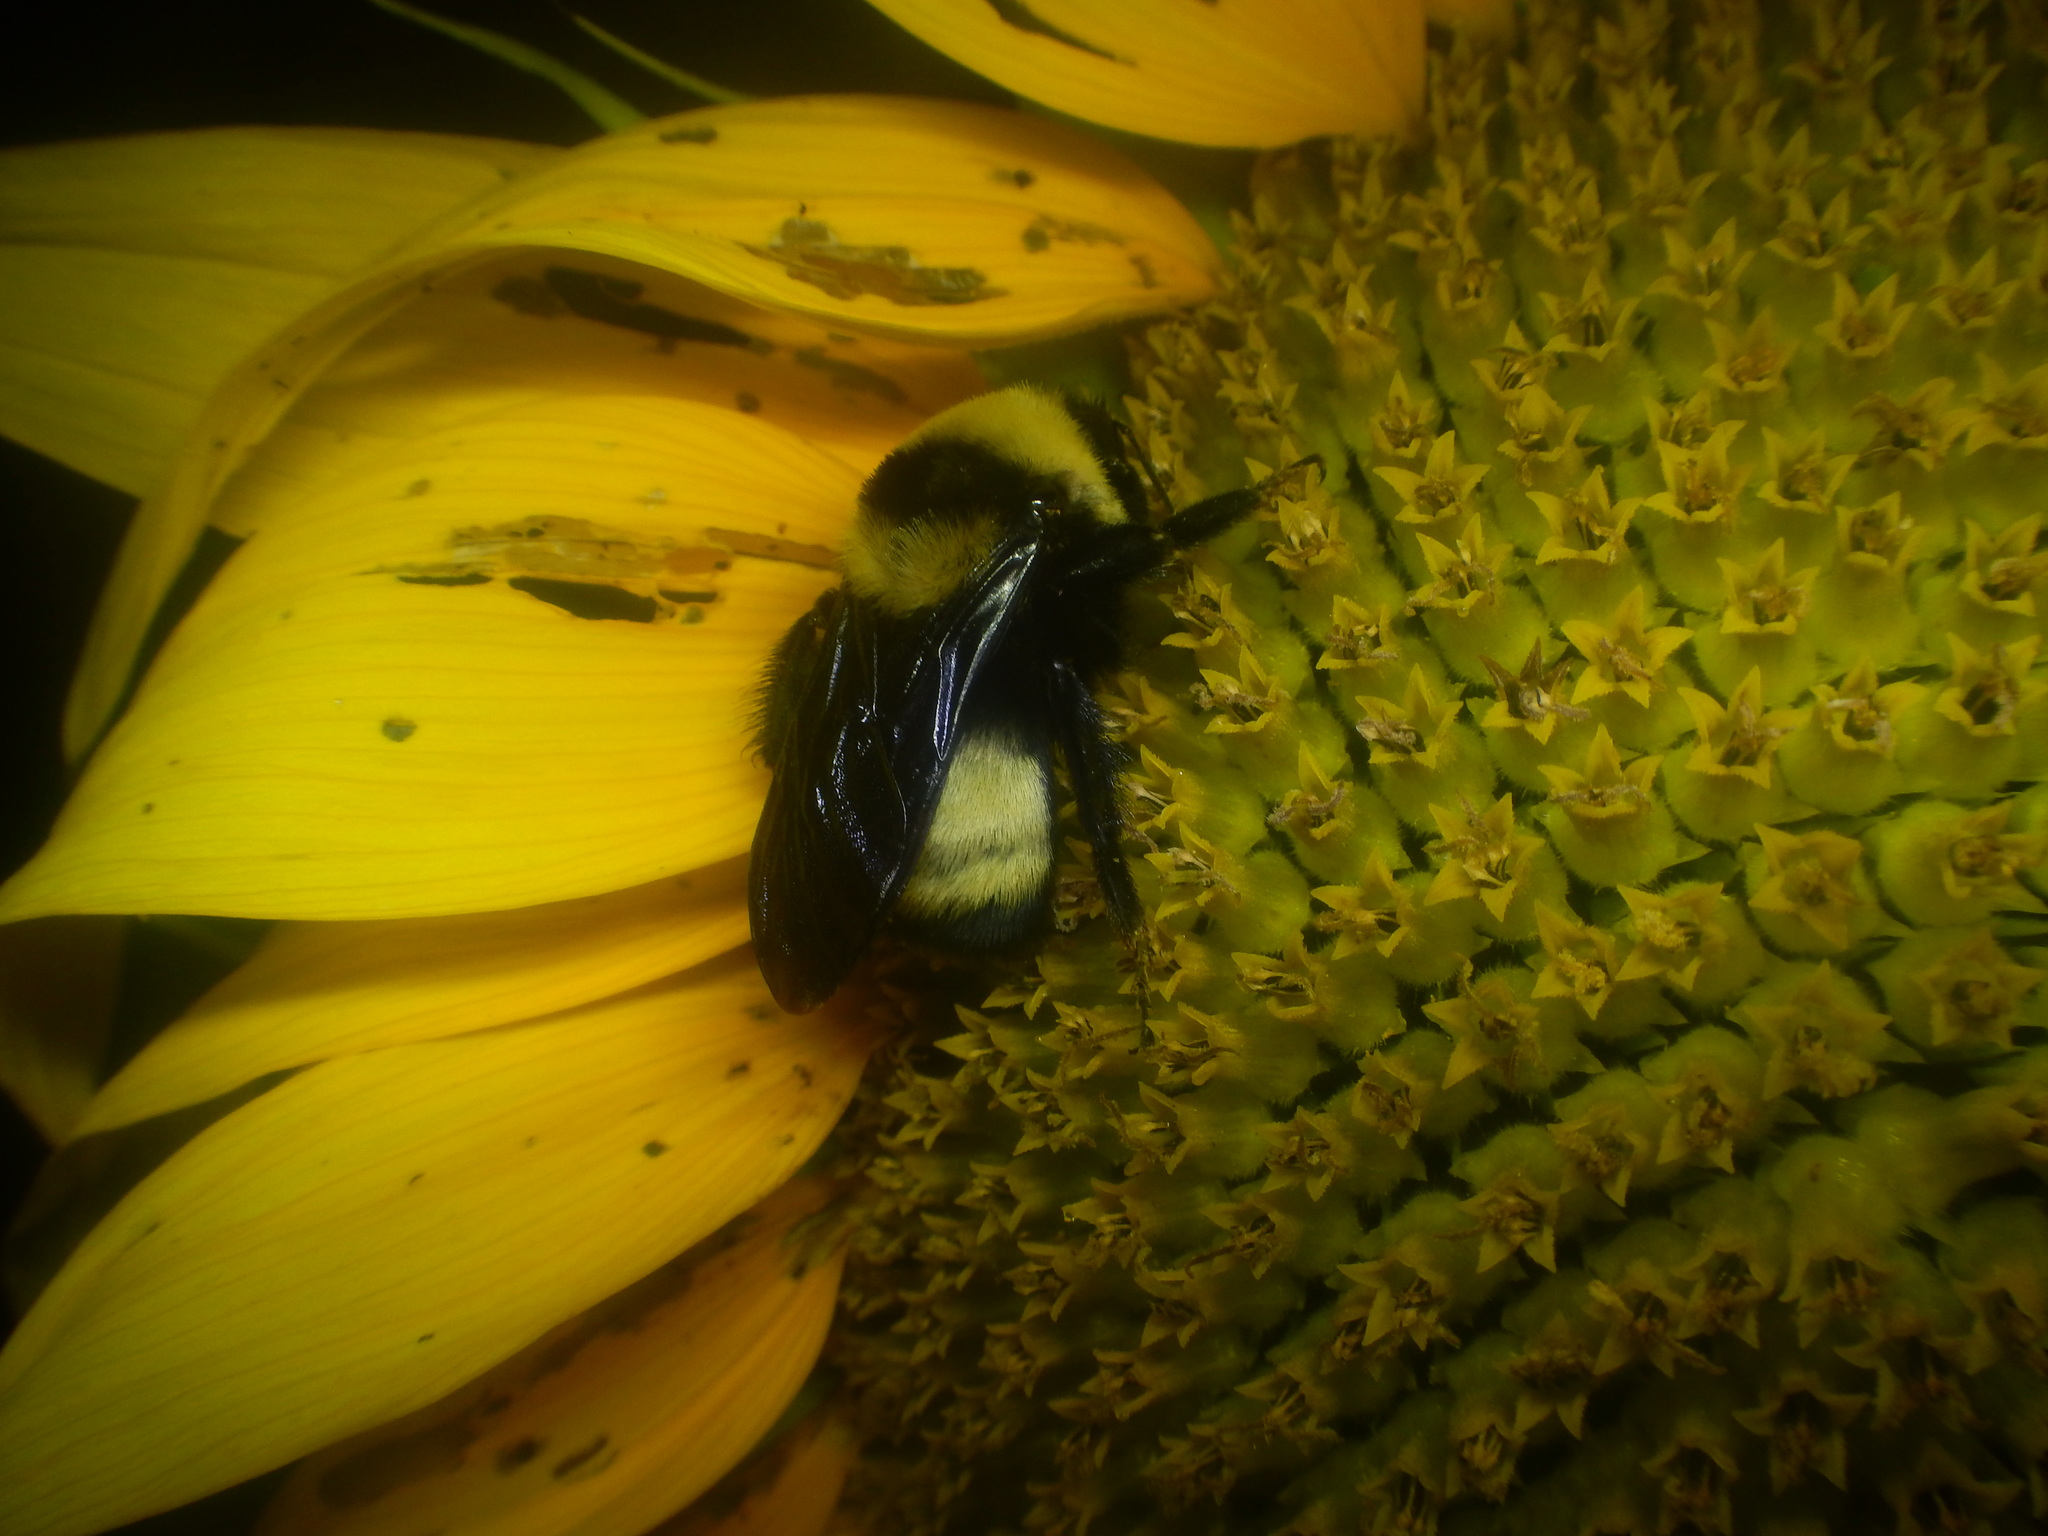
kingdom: Animalia
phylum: Arthropoda
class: Insecta
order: Hymenoptera
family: Apidae
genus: Bombus
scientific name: Bombus auricomus
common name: Black and gold bumble bee
